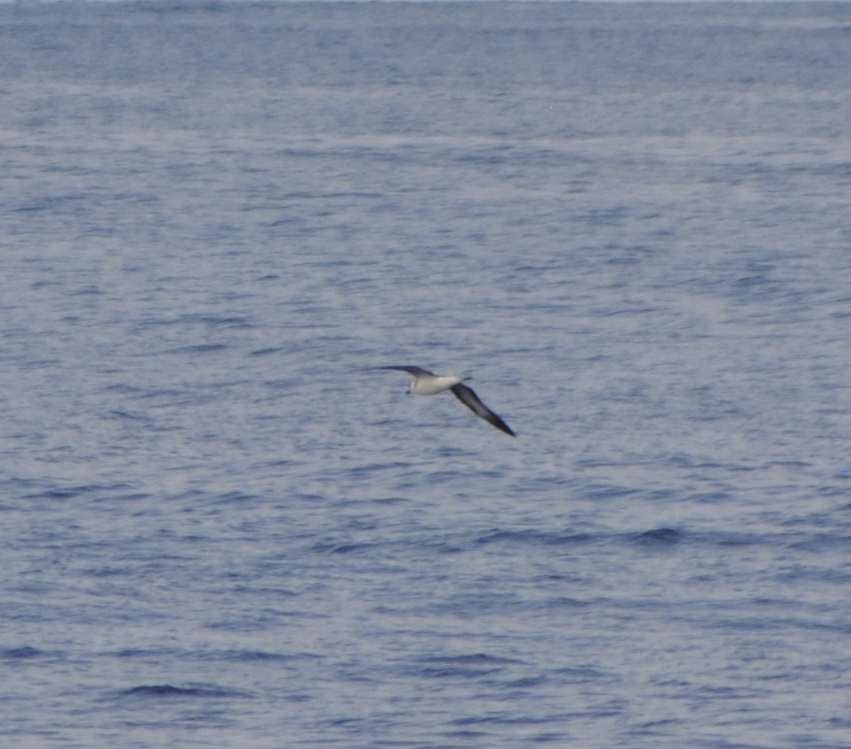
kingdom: Animalia
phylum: Chordata
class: Aves
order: Procellariiformes
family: Procellariidae
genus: Pterodroma
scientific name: Pterodroma hasitata
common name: Black-capped petrel
